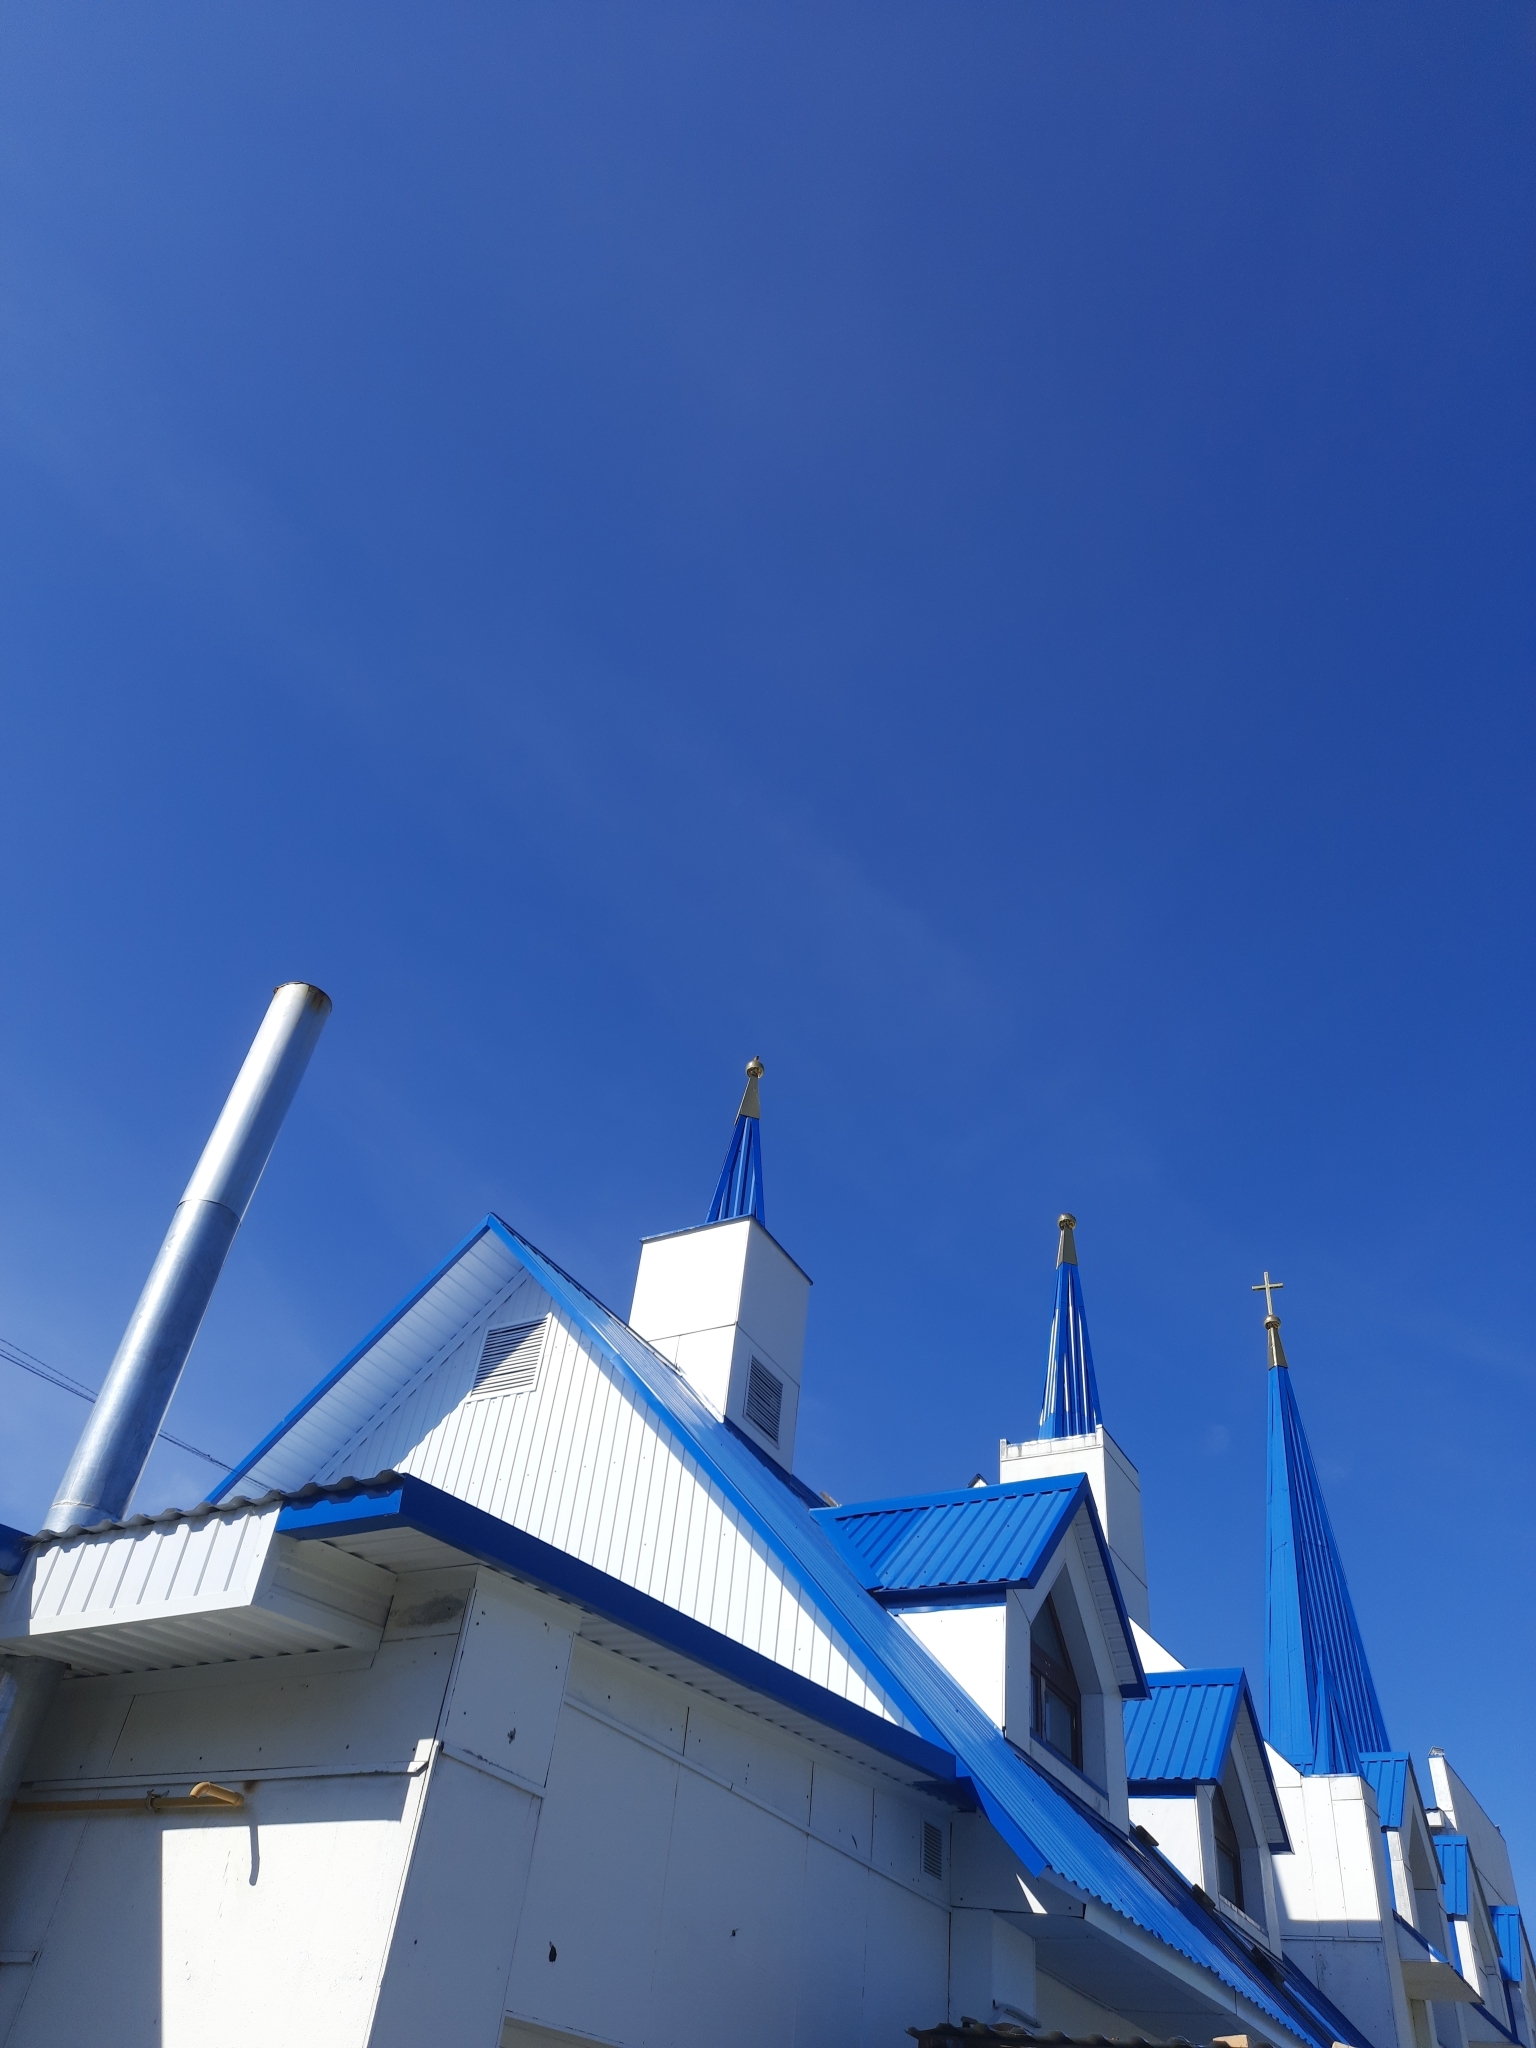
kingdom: Animalia
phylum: Chordata
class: Aves
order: Passeriformes
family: Muscicapidae
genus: Phoenicurus
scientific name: Phoenicurus phoenicurus
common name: Common redstart
